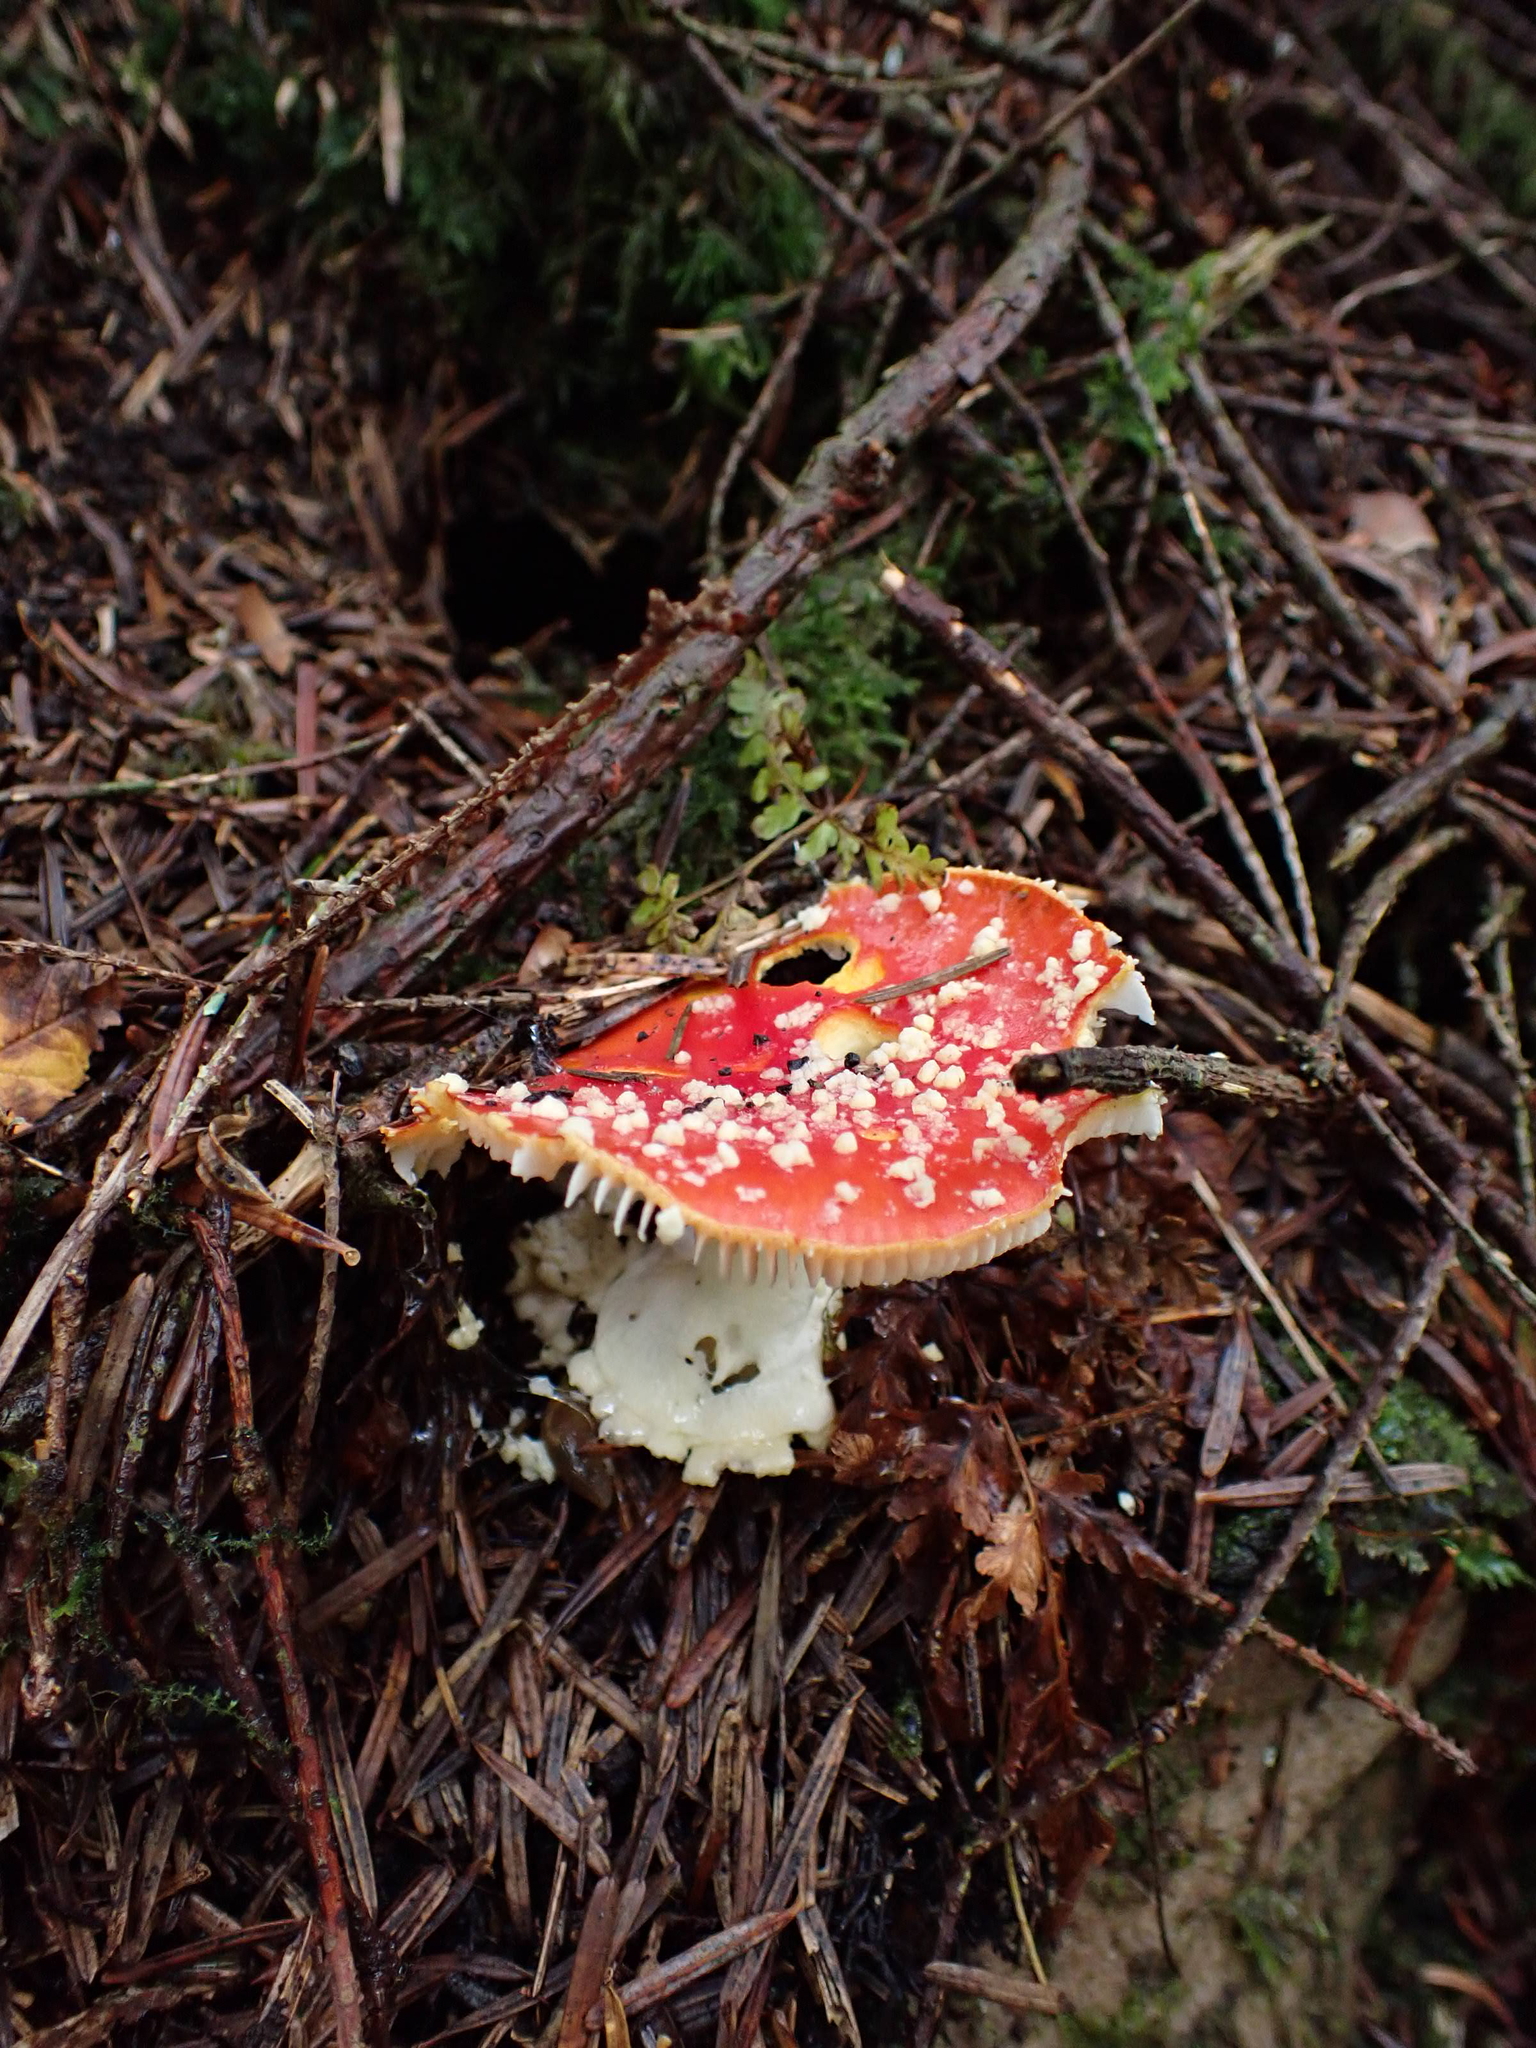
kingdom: Fungi
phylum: Basidiomycota
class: Agaricomycetes
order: Agaricales
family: Amanitaceae
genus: Amanita
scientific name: Amanita muscaria
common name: Fly agaric
